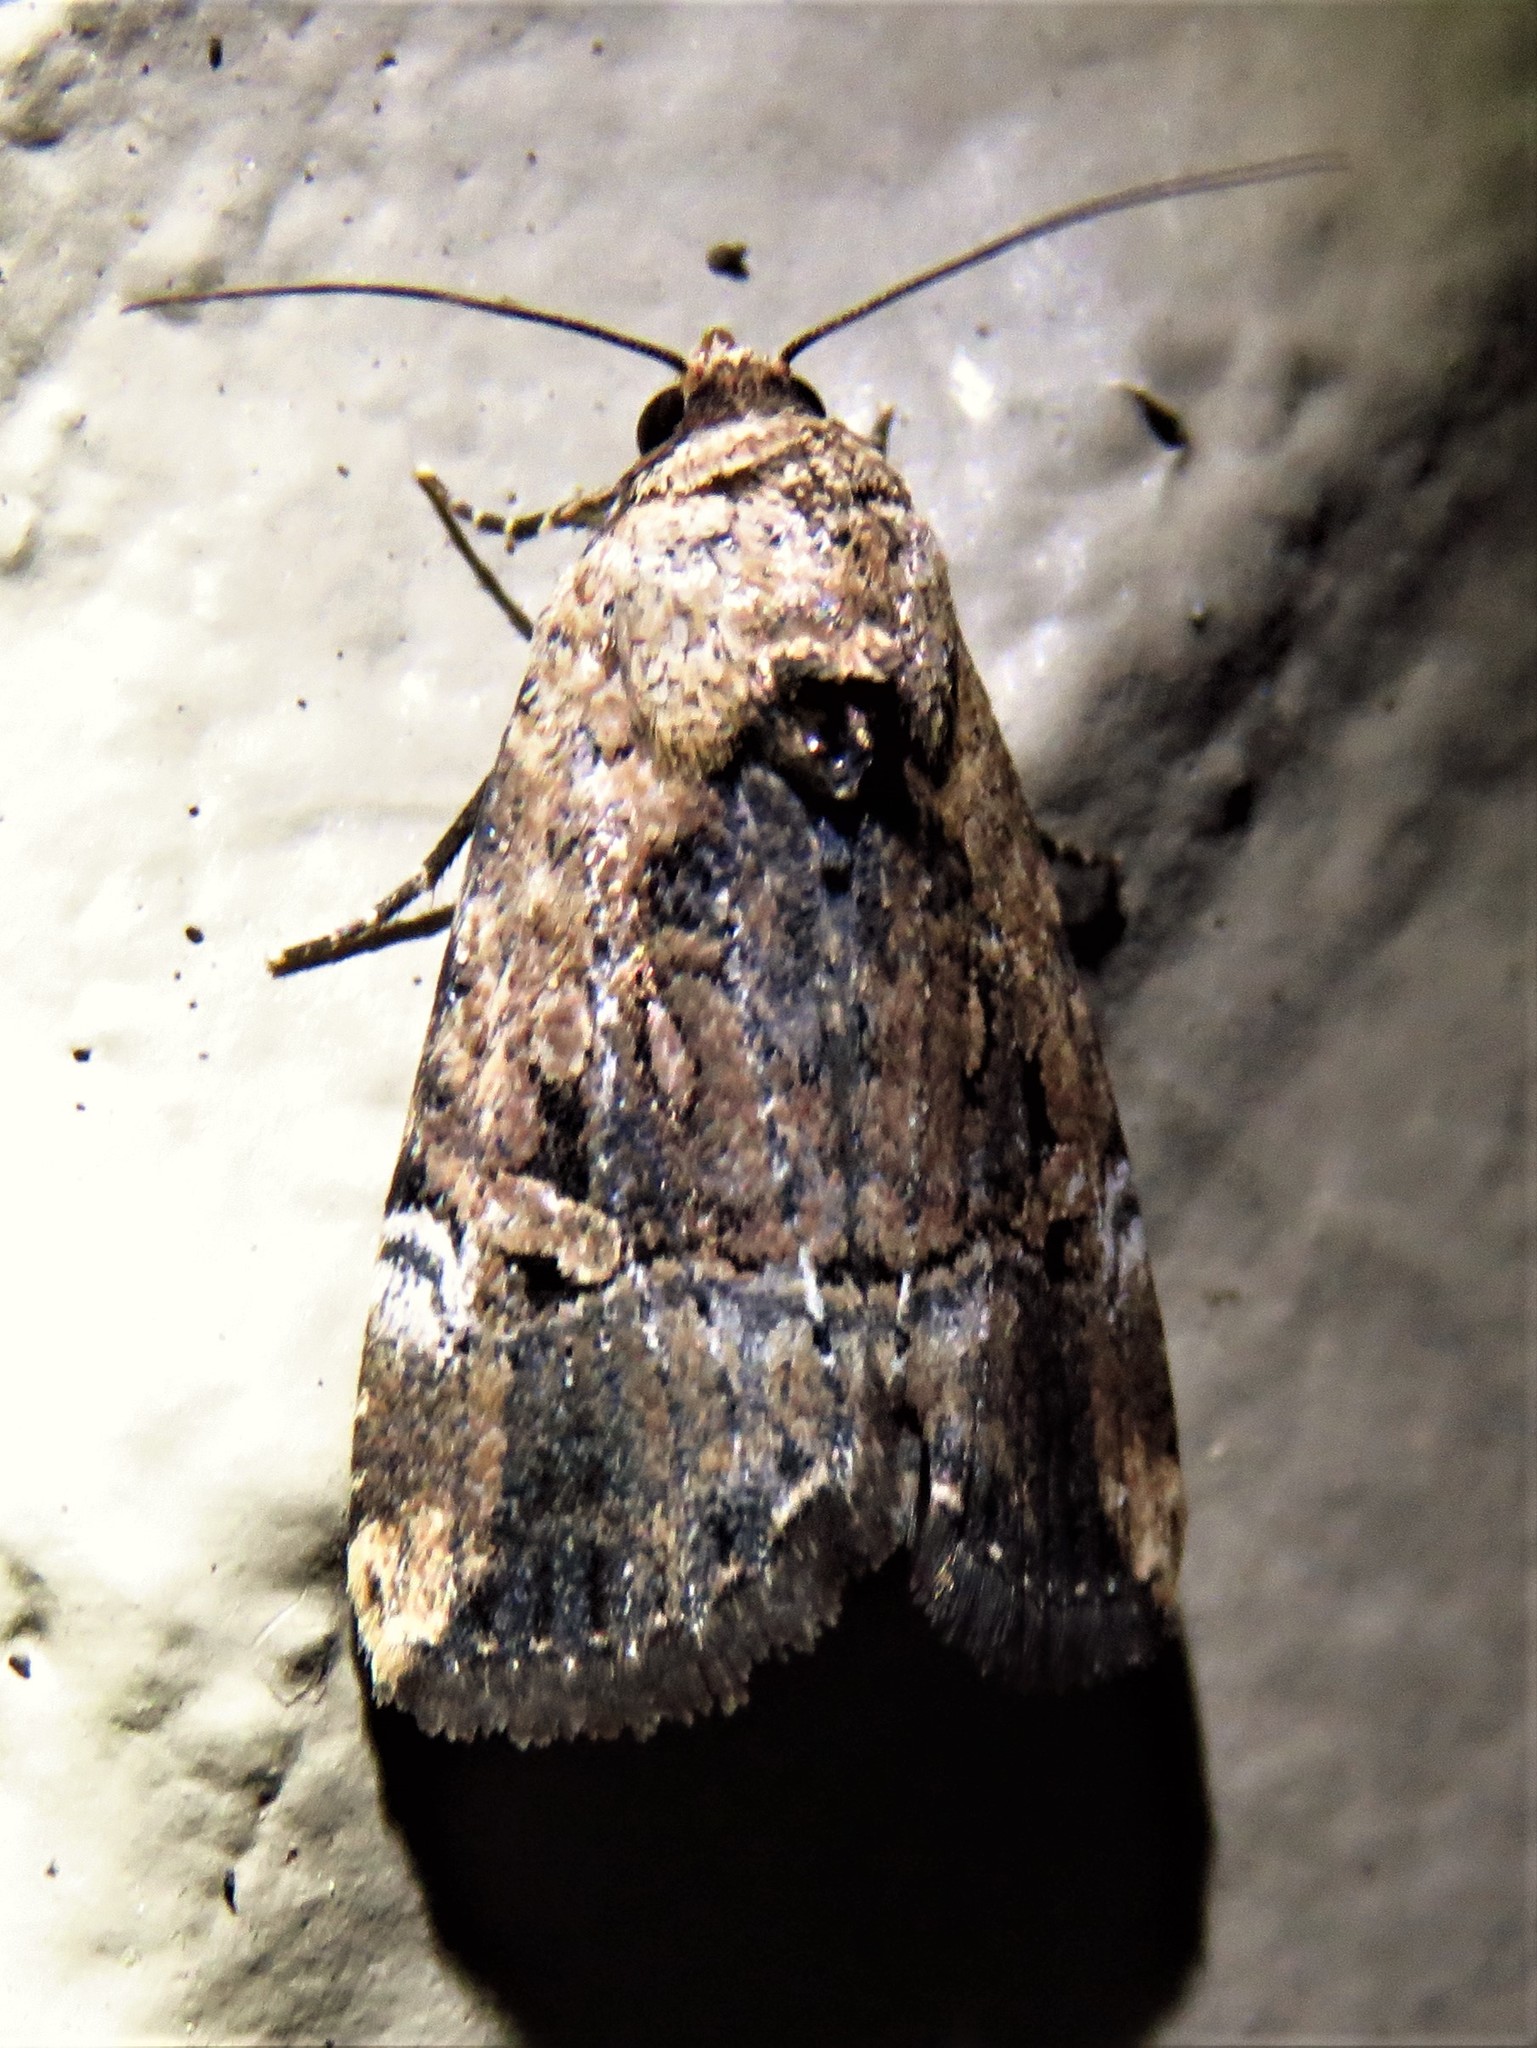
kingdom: Animalia
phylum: Arthropoda
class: Insecta
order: Lepidoptera
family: Noctuidae
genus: Elaphria
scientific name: Elaphria chalcedonia
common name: Chalcedony midget
